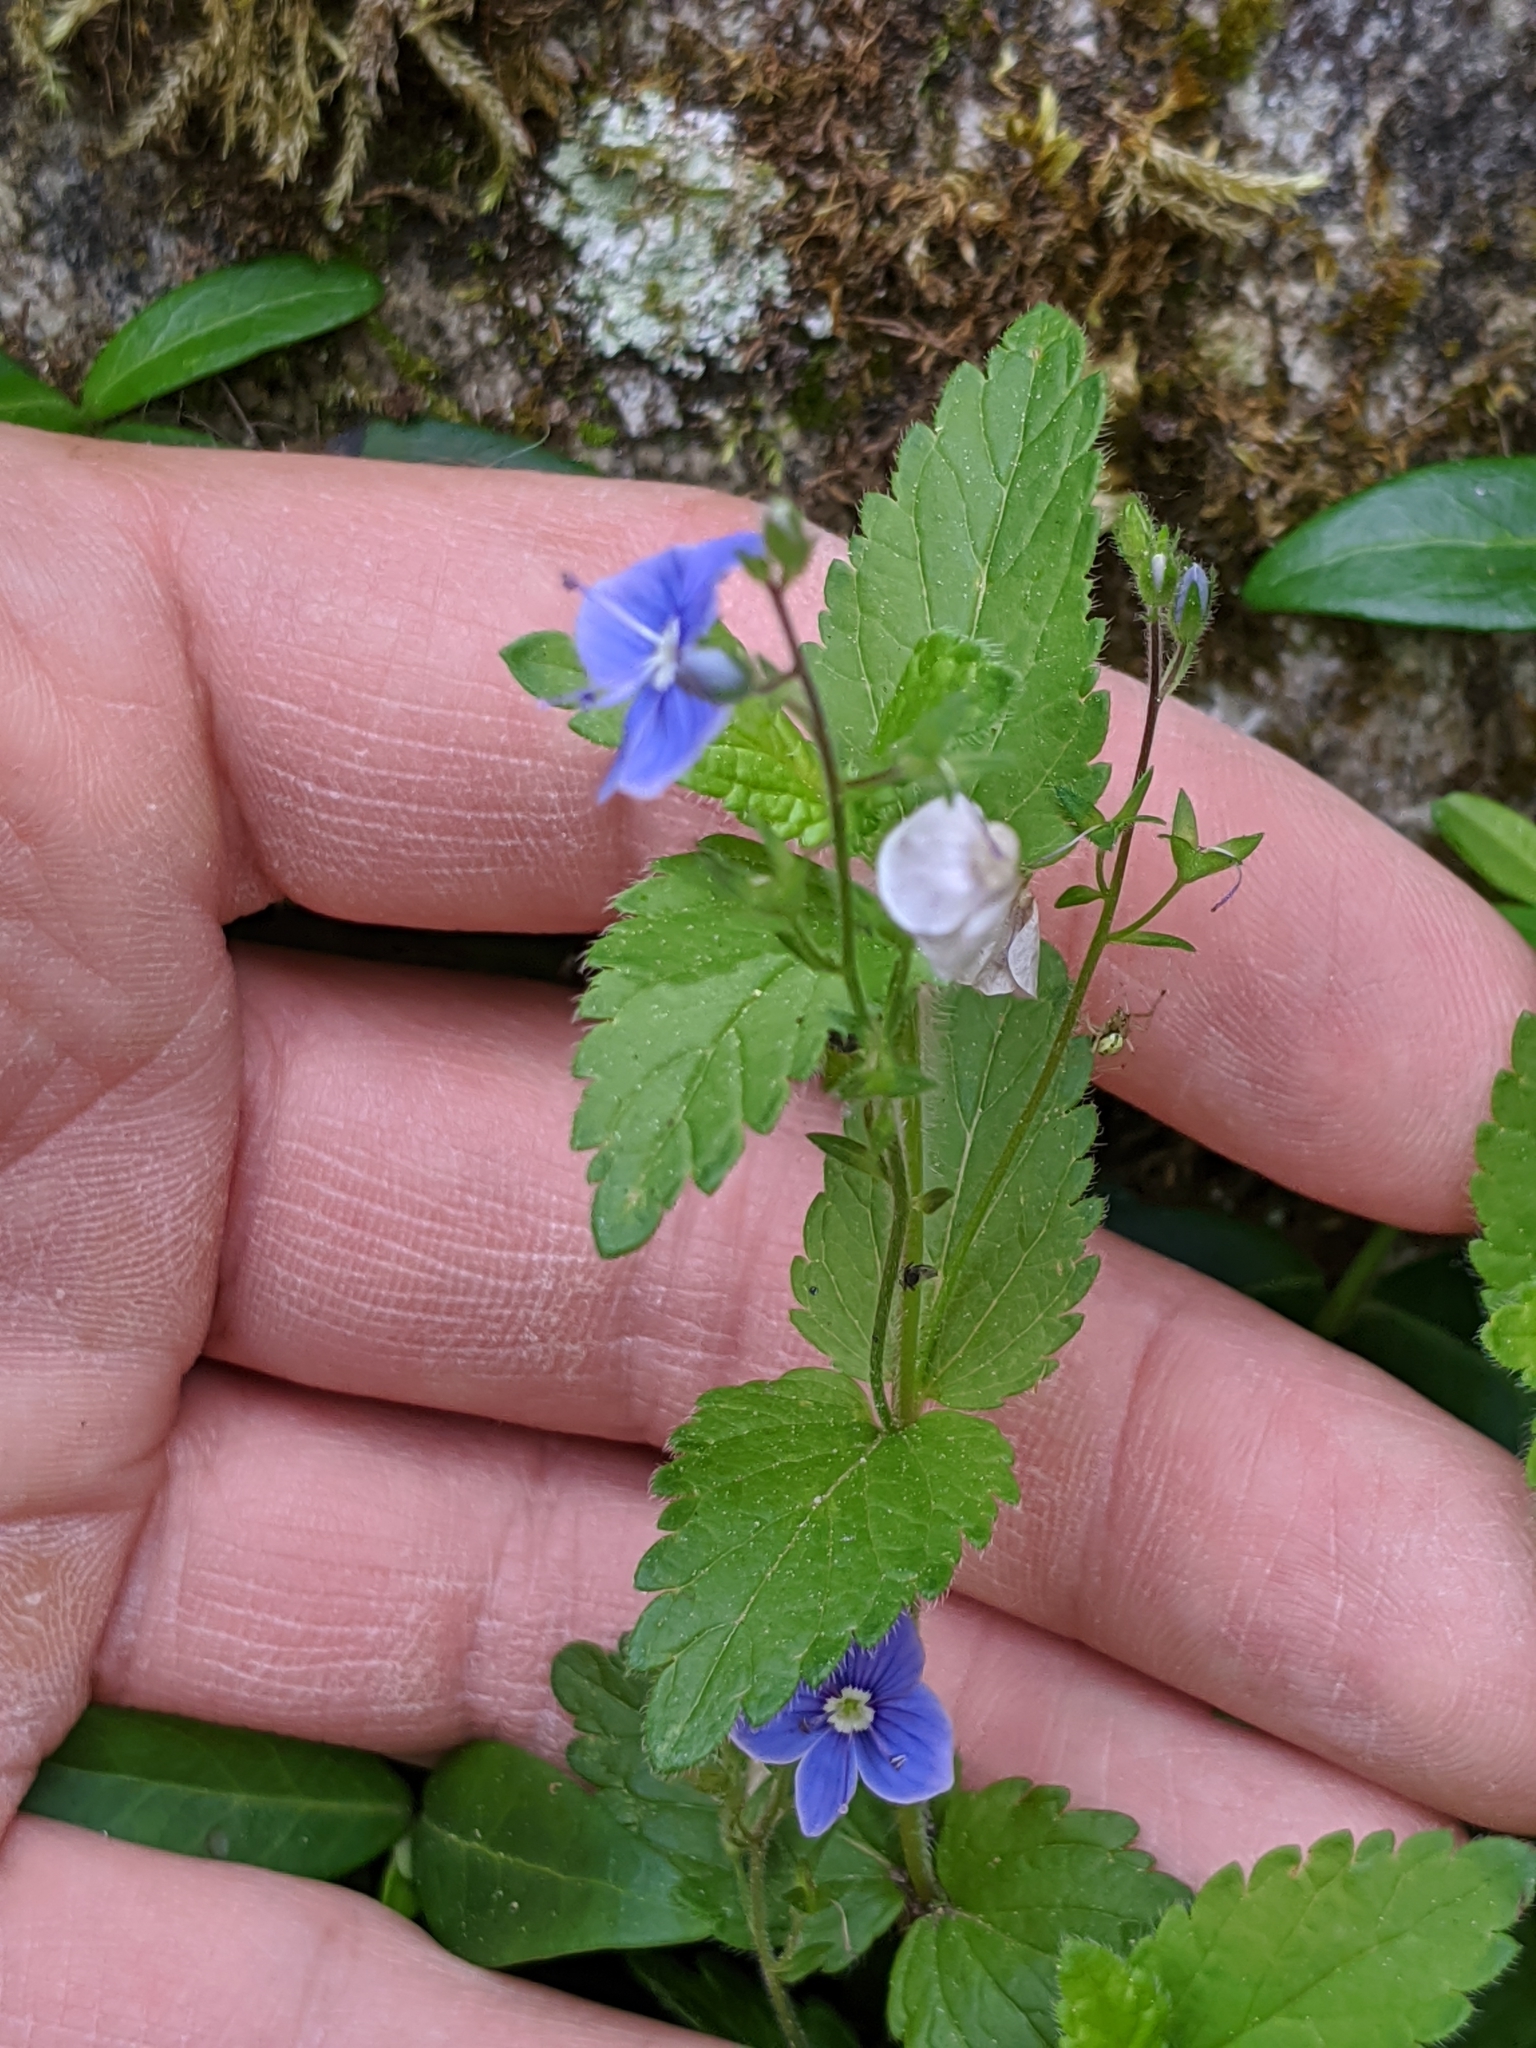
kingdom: Plantae
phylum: Tracheophyta
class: Magnoliopsida
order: Lamiales
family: Plantaginaceae
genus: Veronica
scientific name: Veronica chamaedrys
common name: Germander speedwell
